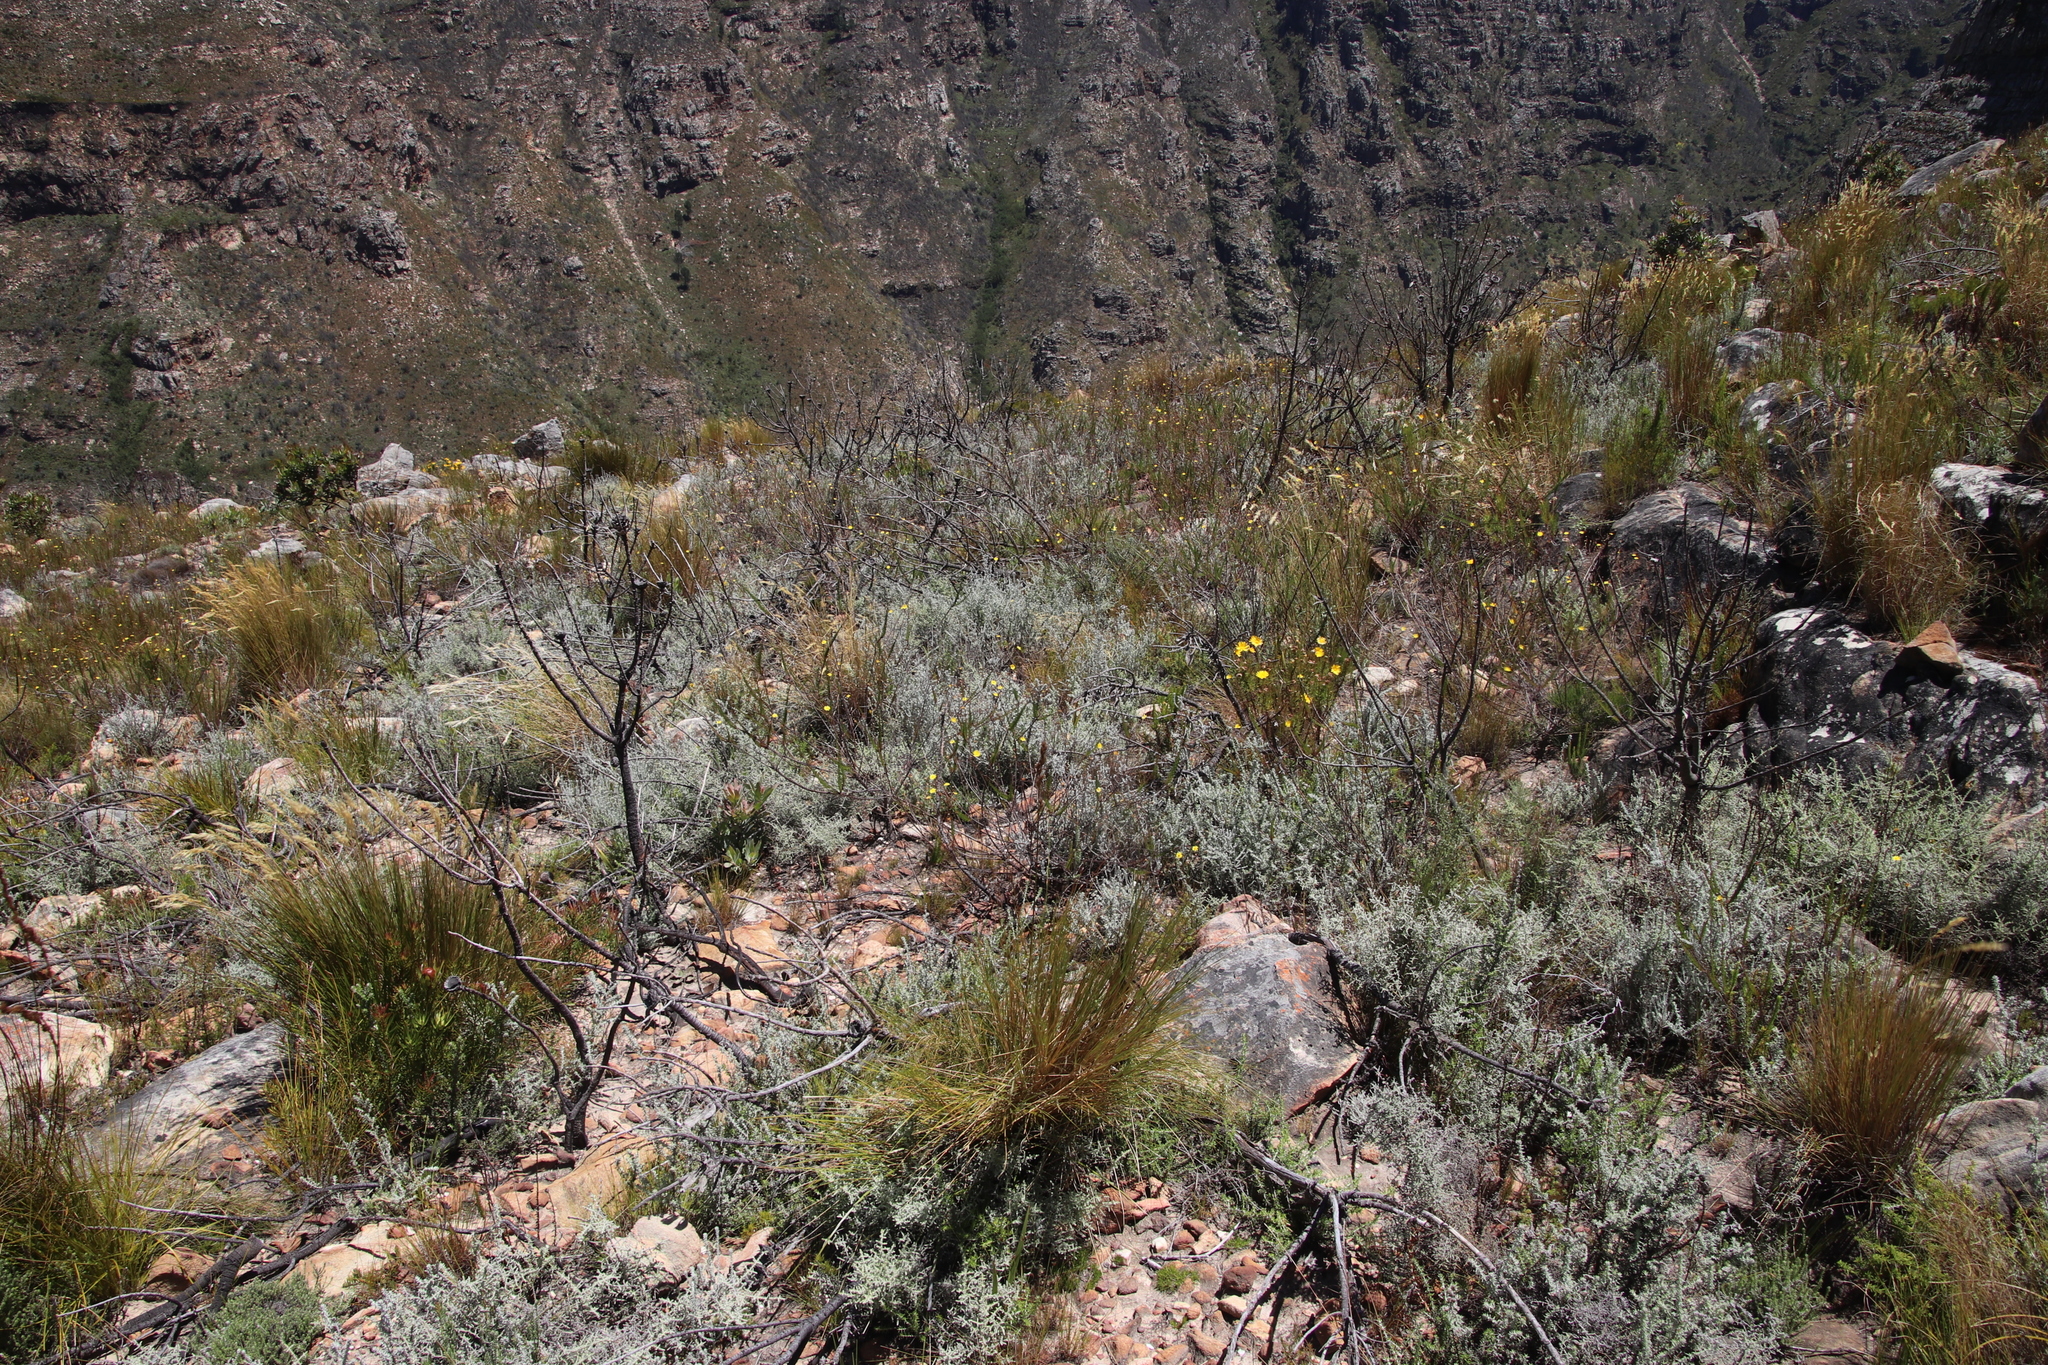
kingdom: Plantae
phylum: Tracheophyta
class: Magnoliopsida
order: Asterales
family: Asteraceae
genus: Seriphium
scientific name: Seriphium plumosum
